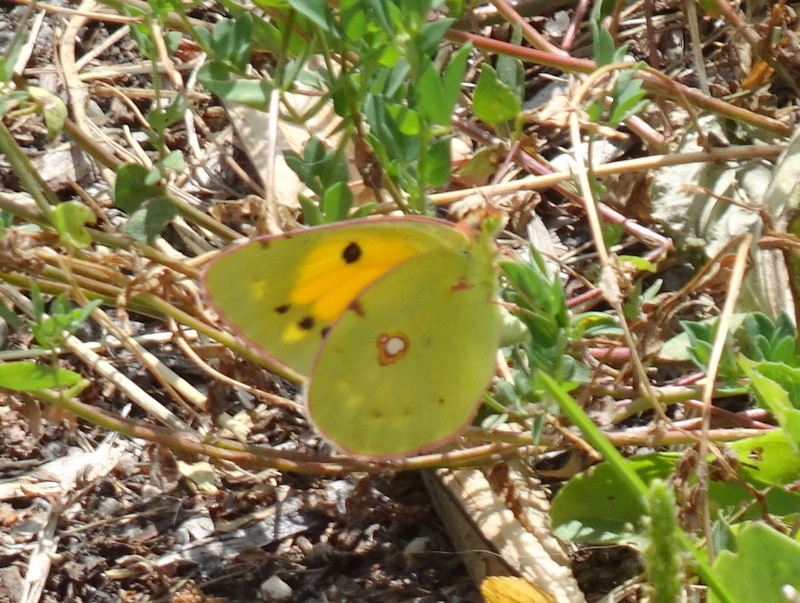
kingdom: Animalia
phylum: Arthropoda
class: Insecta
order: Lepidoptera
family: Pieridae
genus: Colias
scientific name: Colias croceus
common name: Clouded yellow
